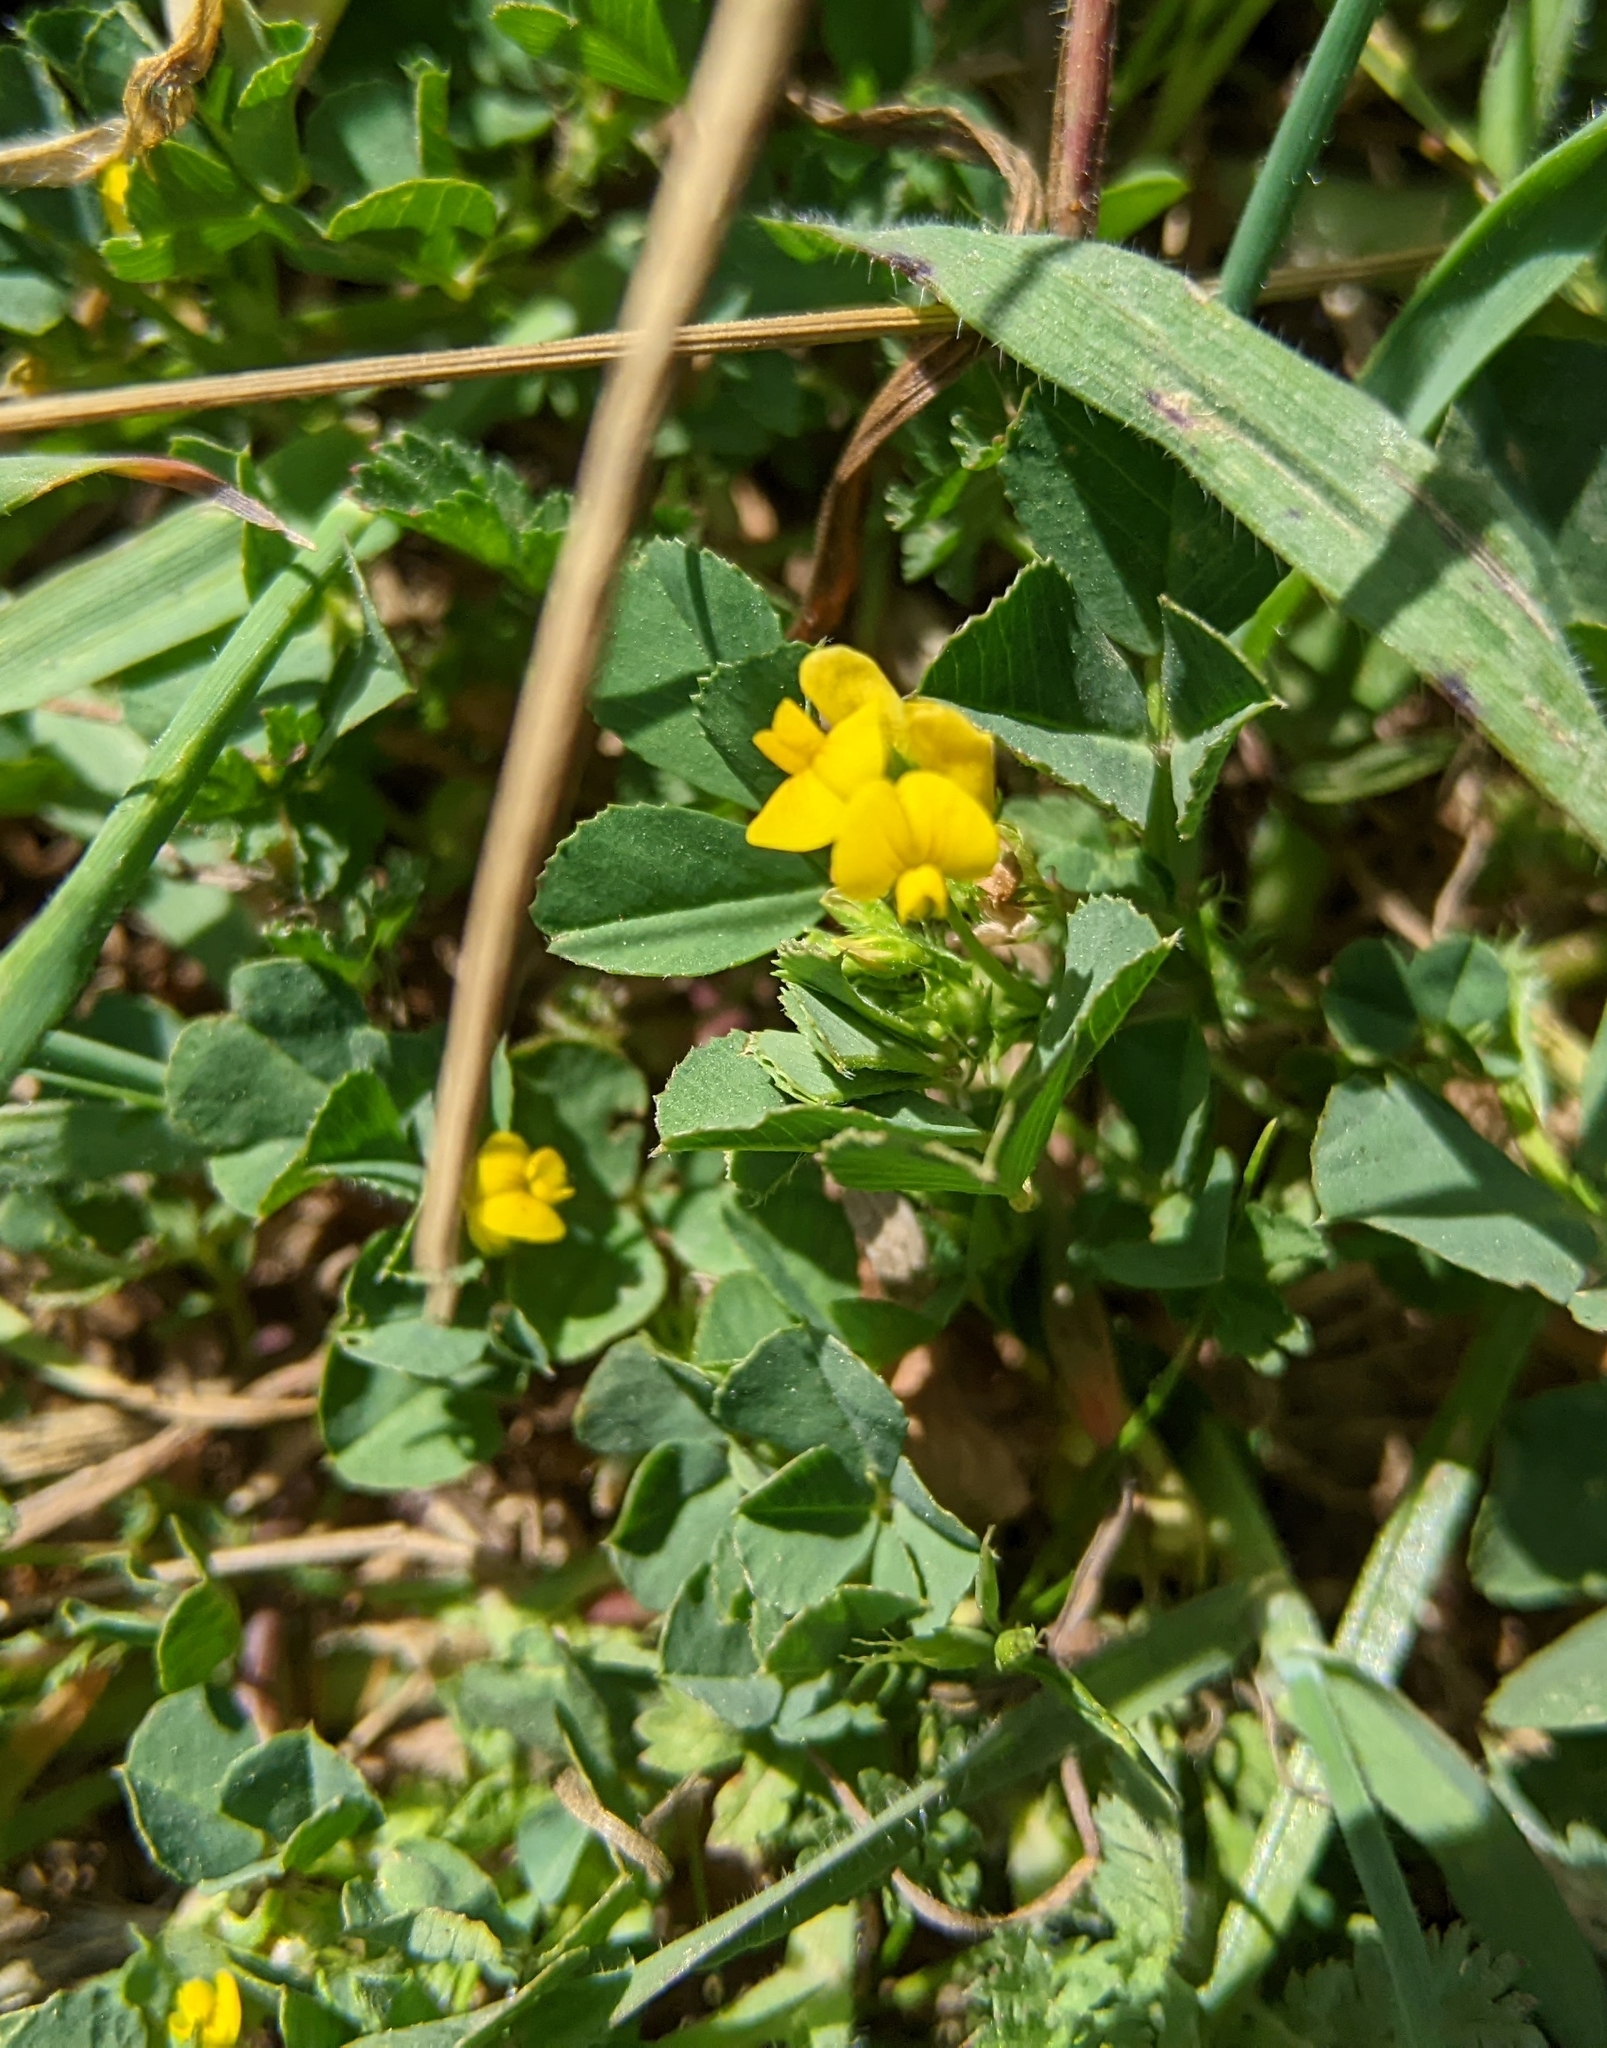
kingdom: Plantae
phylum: Tracheophyta
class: Magnoliopsida
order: Fabales
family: Fabaceae
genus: Medicago
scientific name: Medicago polymorpha
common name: Burclover
